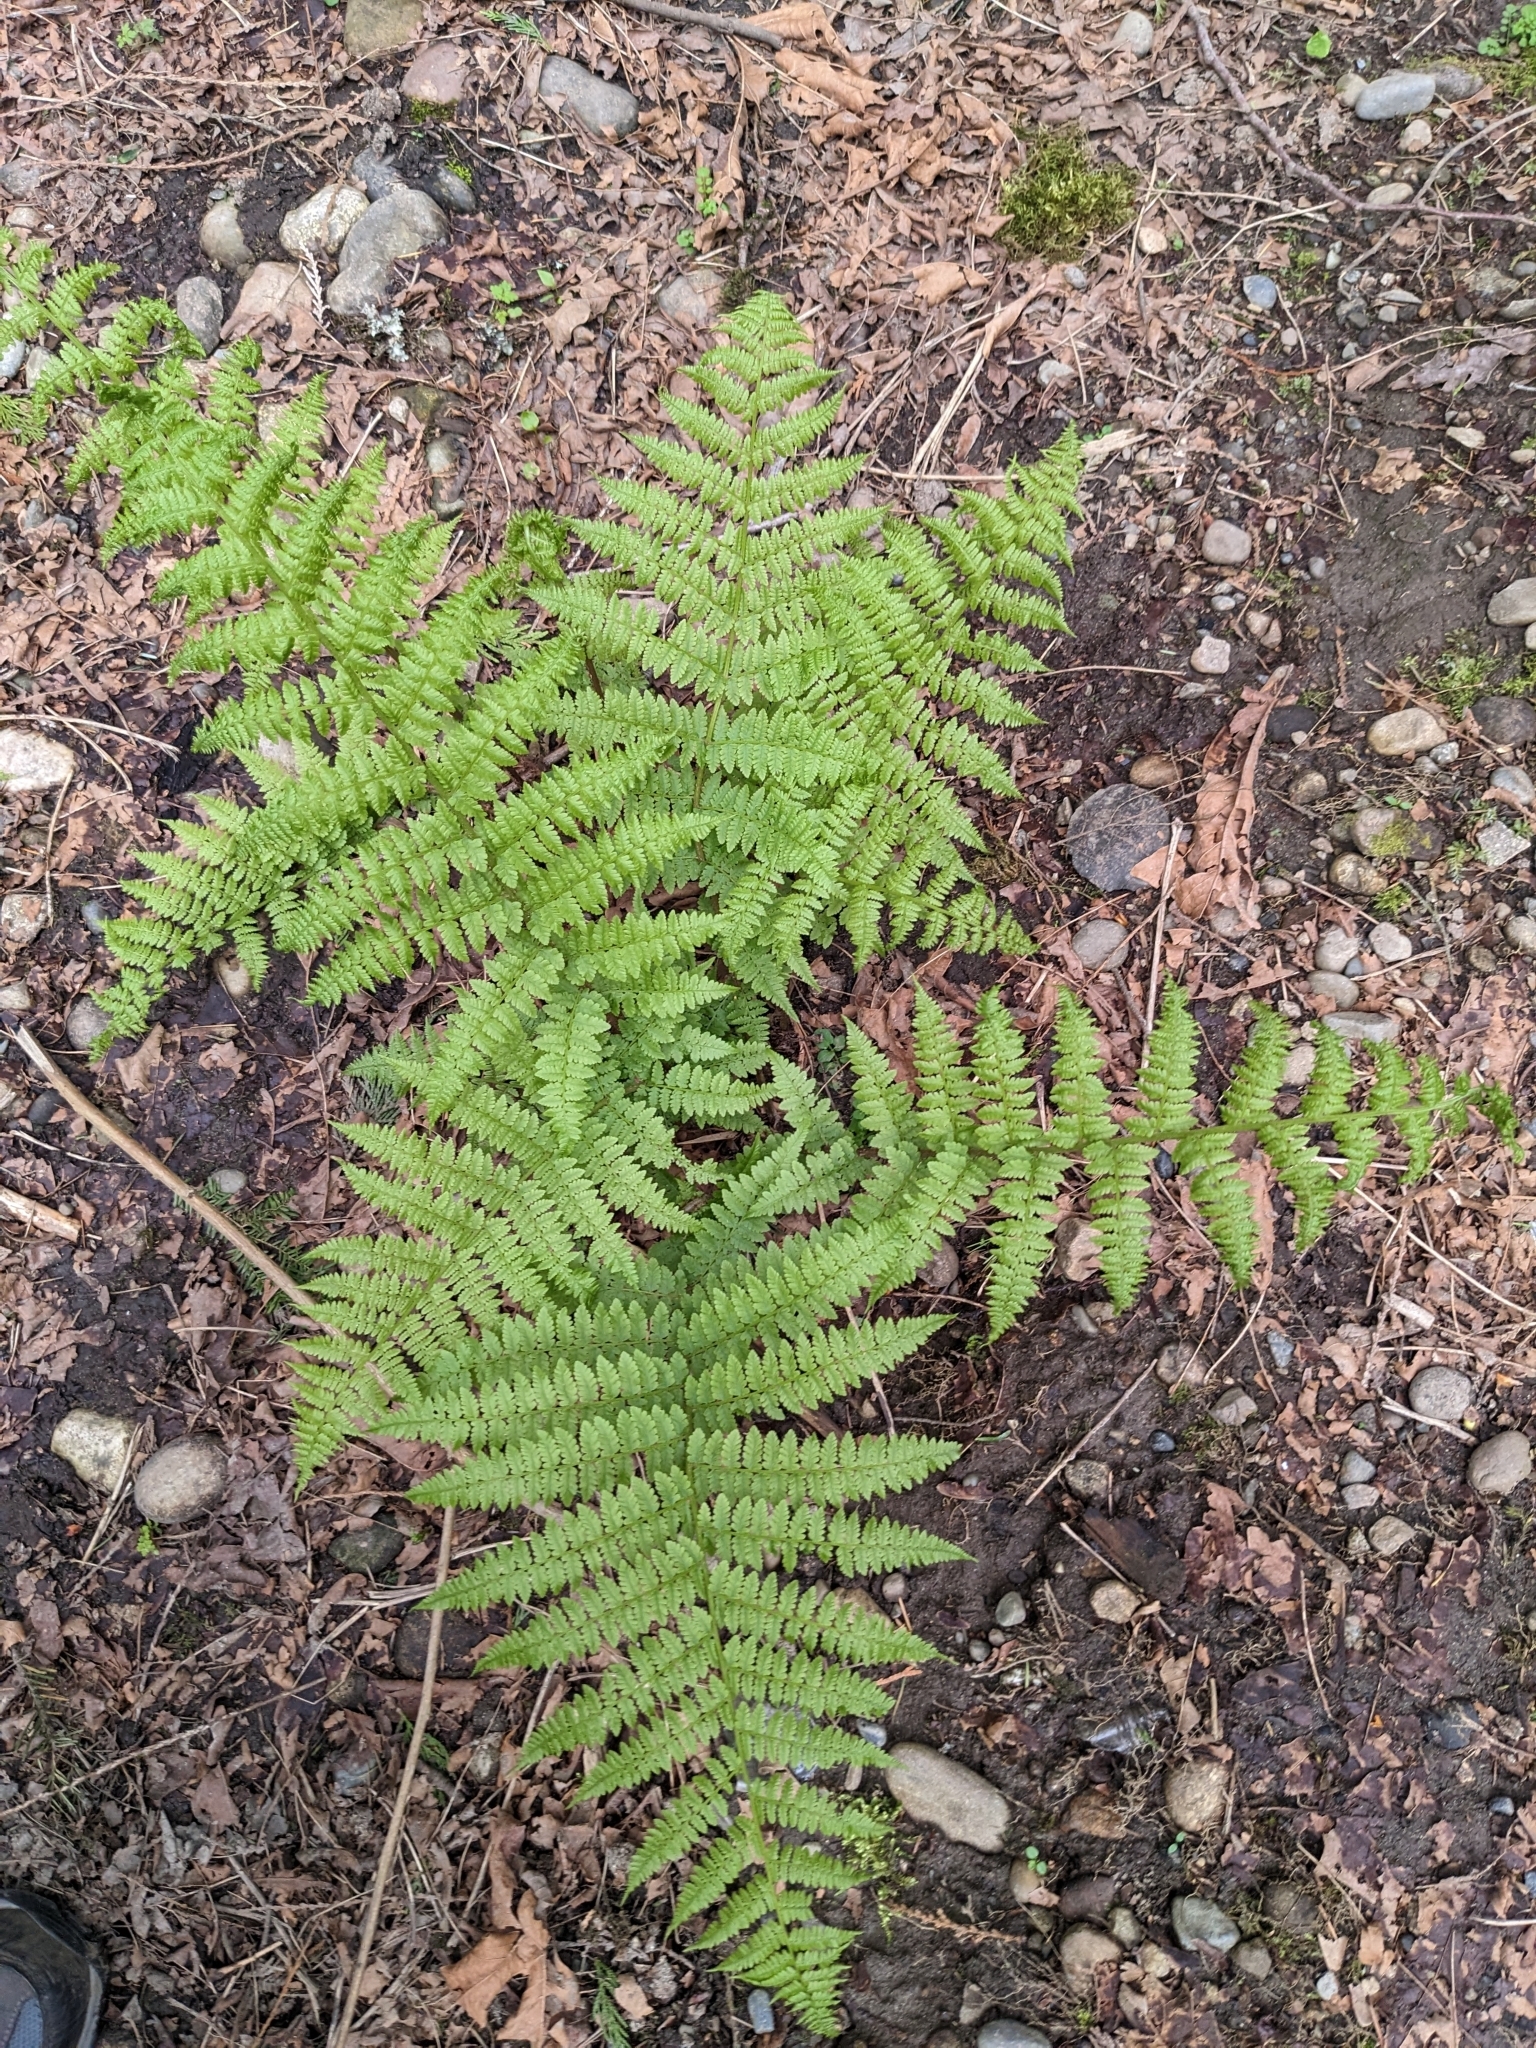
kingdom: Plantae
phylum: Tracheophyta
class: Polypodiopsida
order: Polypodiales
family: Athyriaceae
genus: Athyrium
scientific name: Athyrium filix-femina
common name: Lady fern
